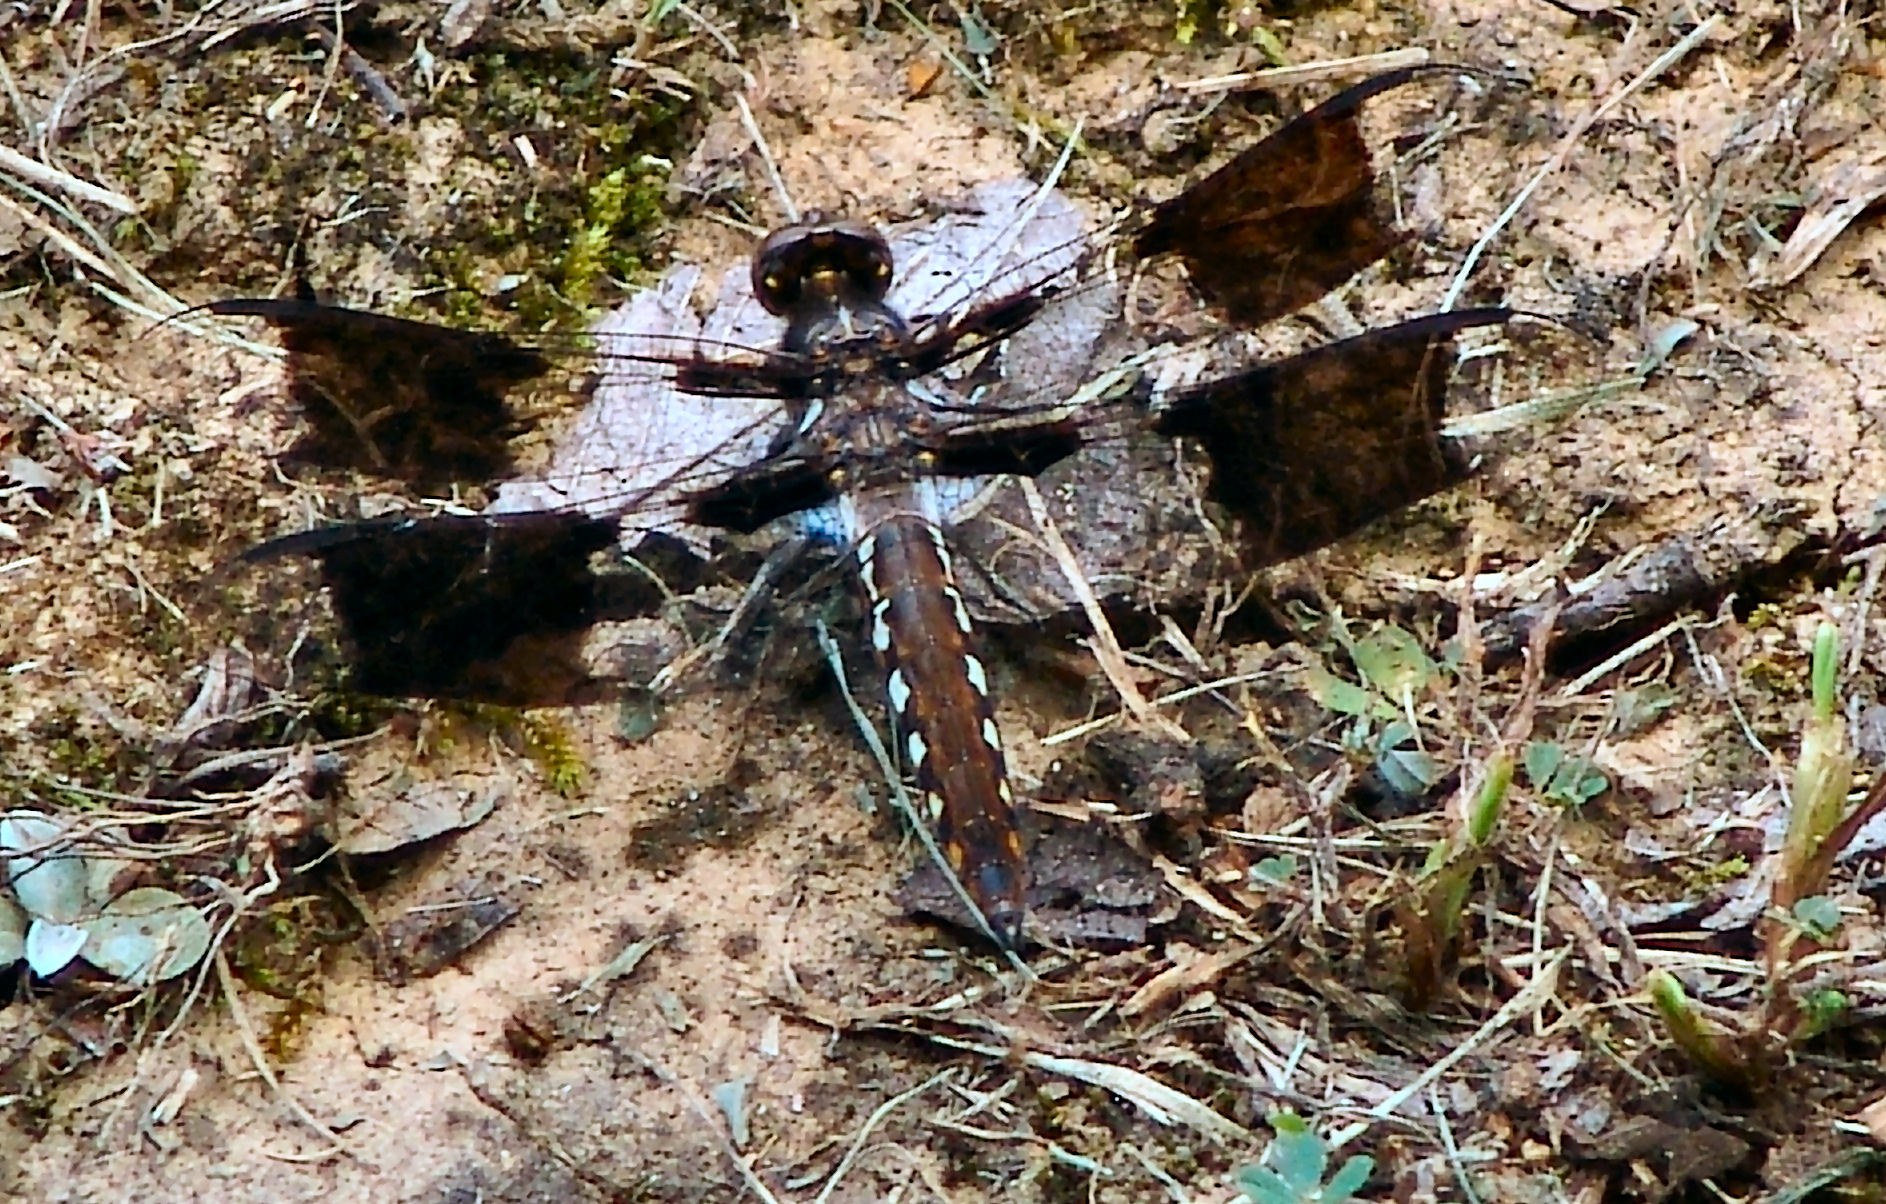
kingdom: Animalia
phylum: Arthropoda
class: Insecta
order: Odonata
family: Libellulidae
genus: Plathemis
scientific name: Plathemis lydia
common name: Common whitetail
